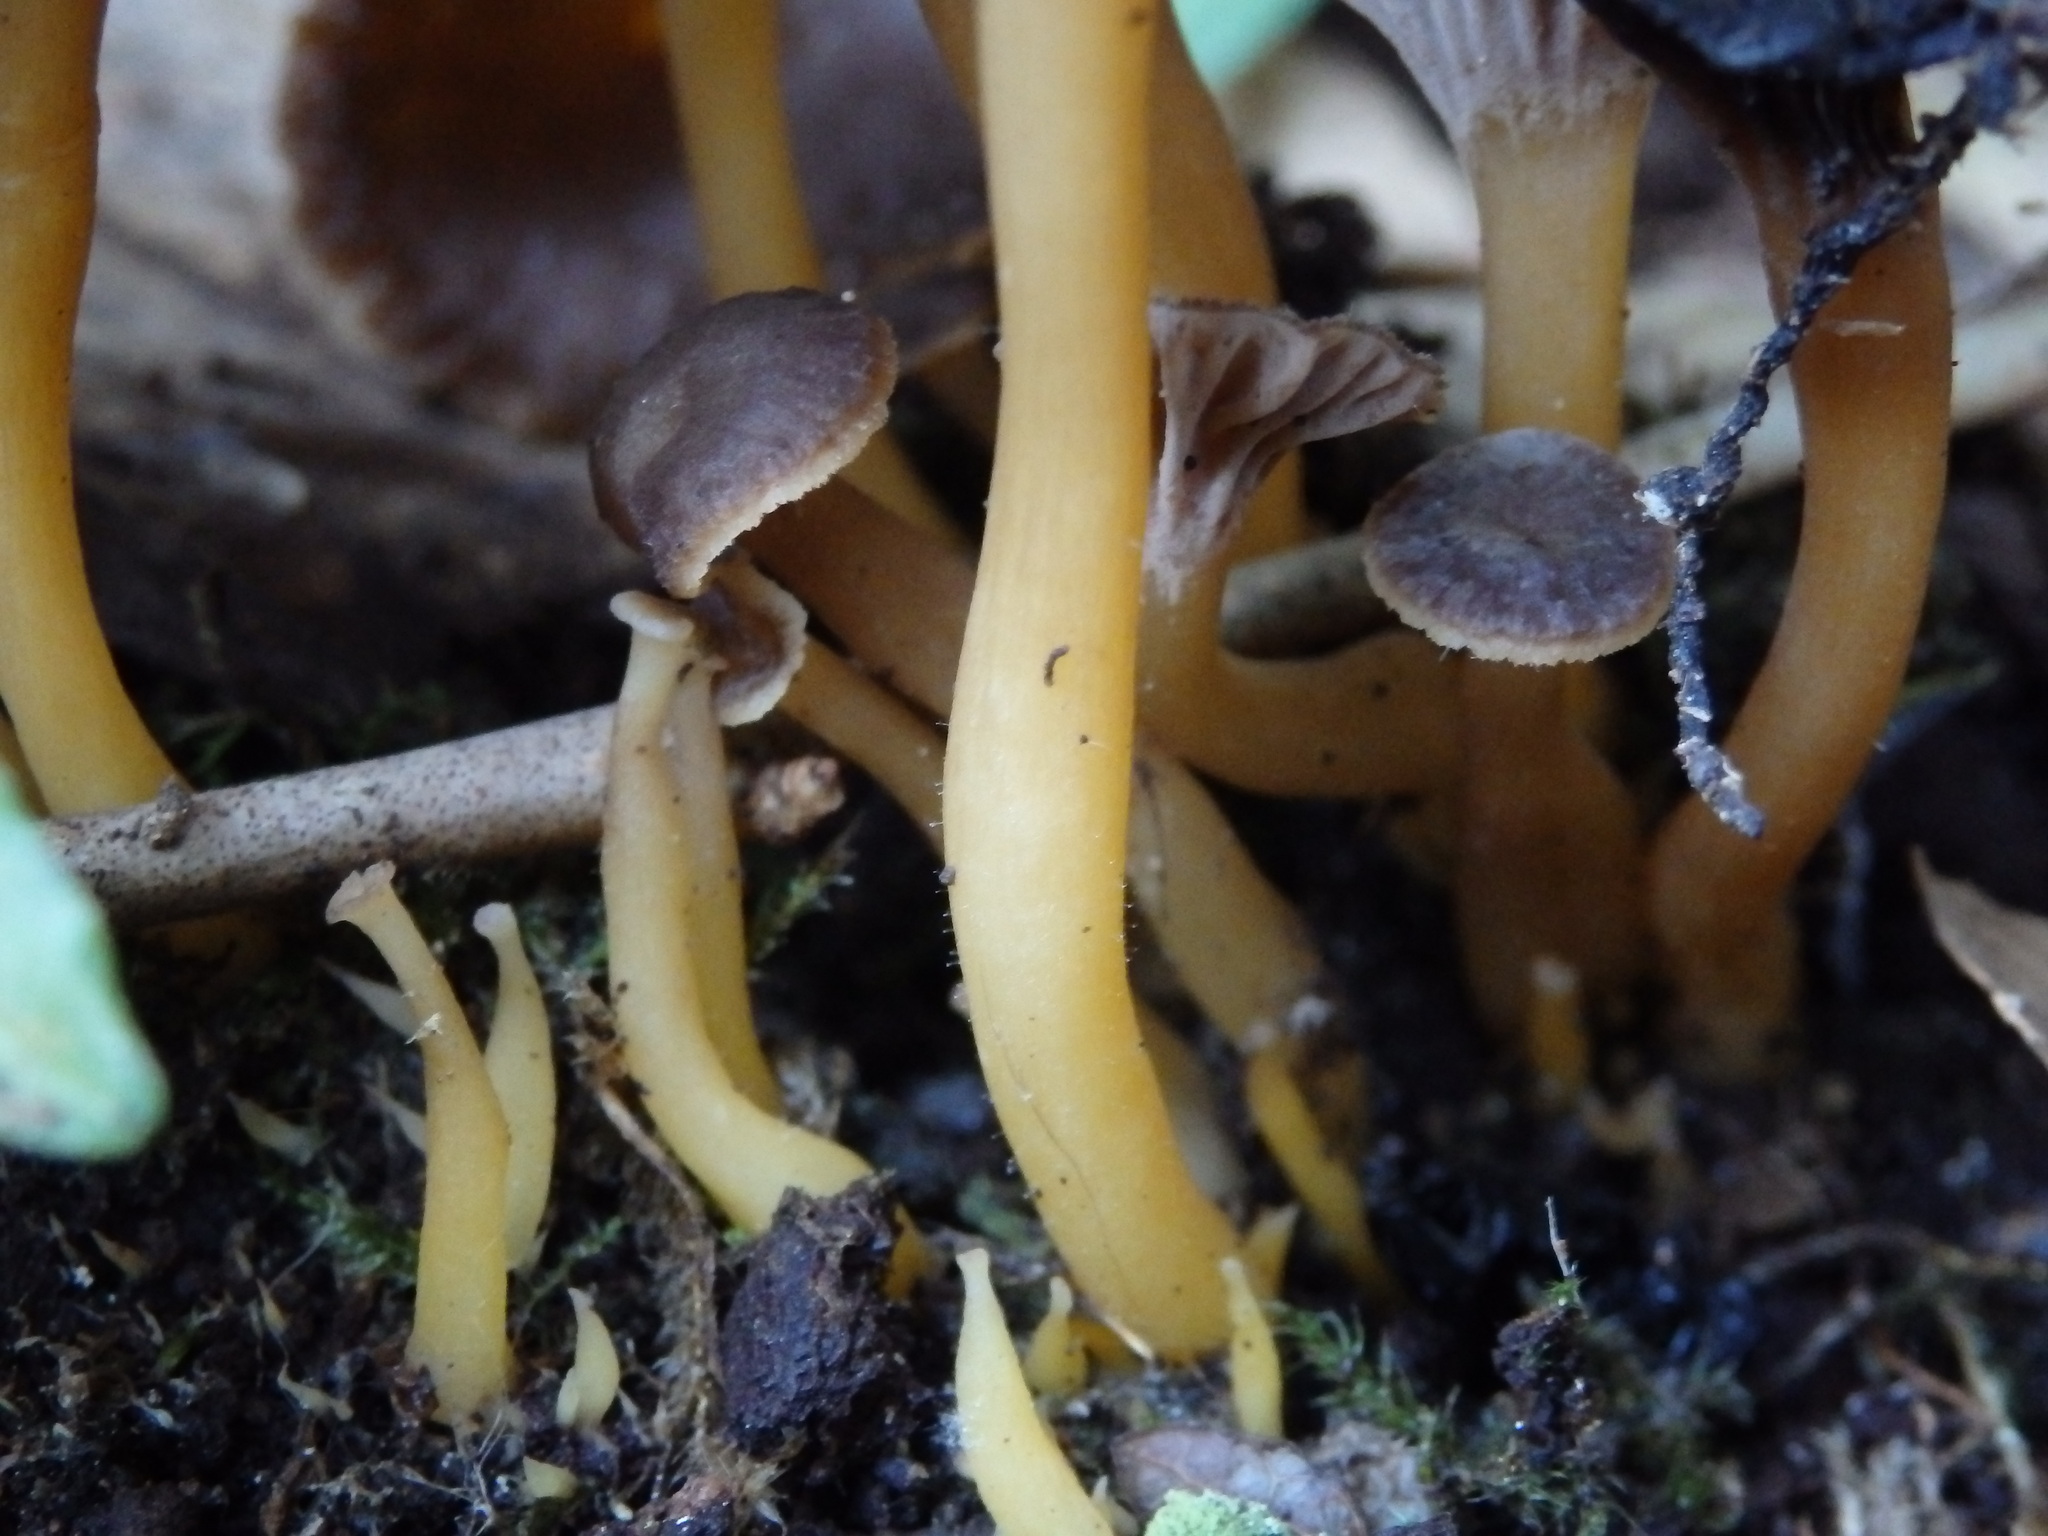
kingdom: Fungi
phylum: Basidiomycota
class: Agaricomycetes
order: Cantharellales
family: Hydnaceae
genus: Craterellus
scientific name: Craterellus tubaeformis
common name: Yellowfoot
